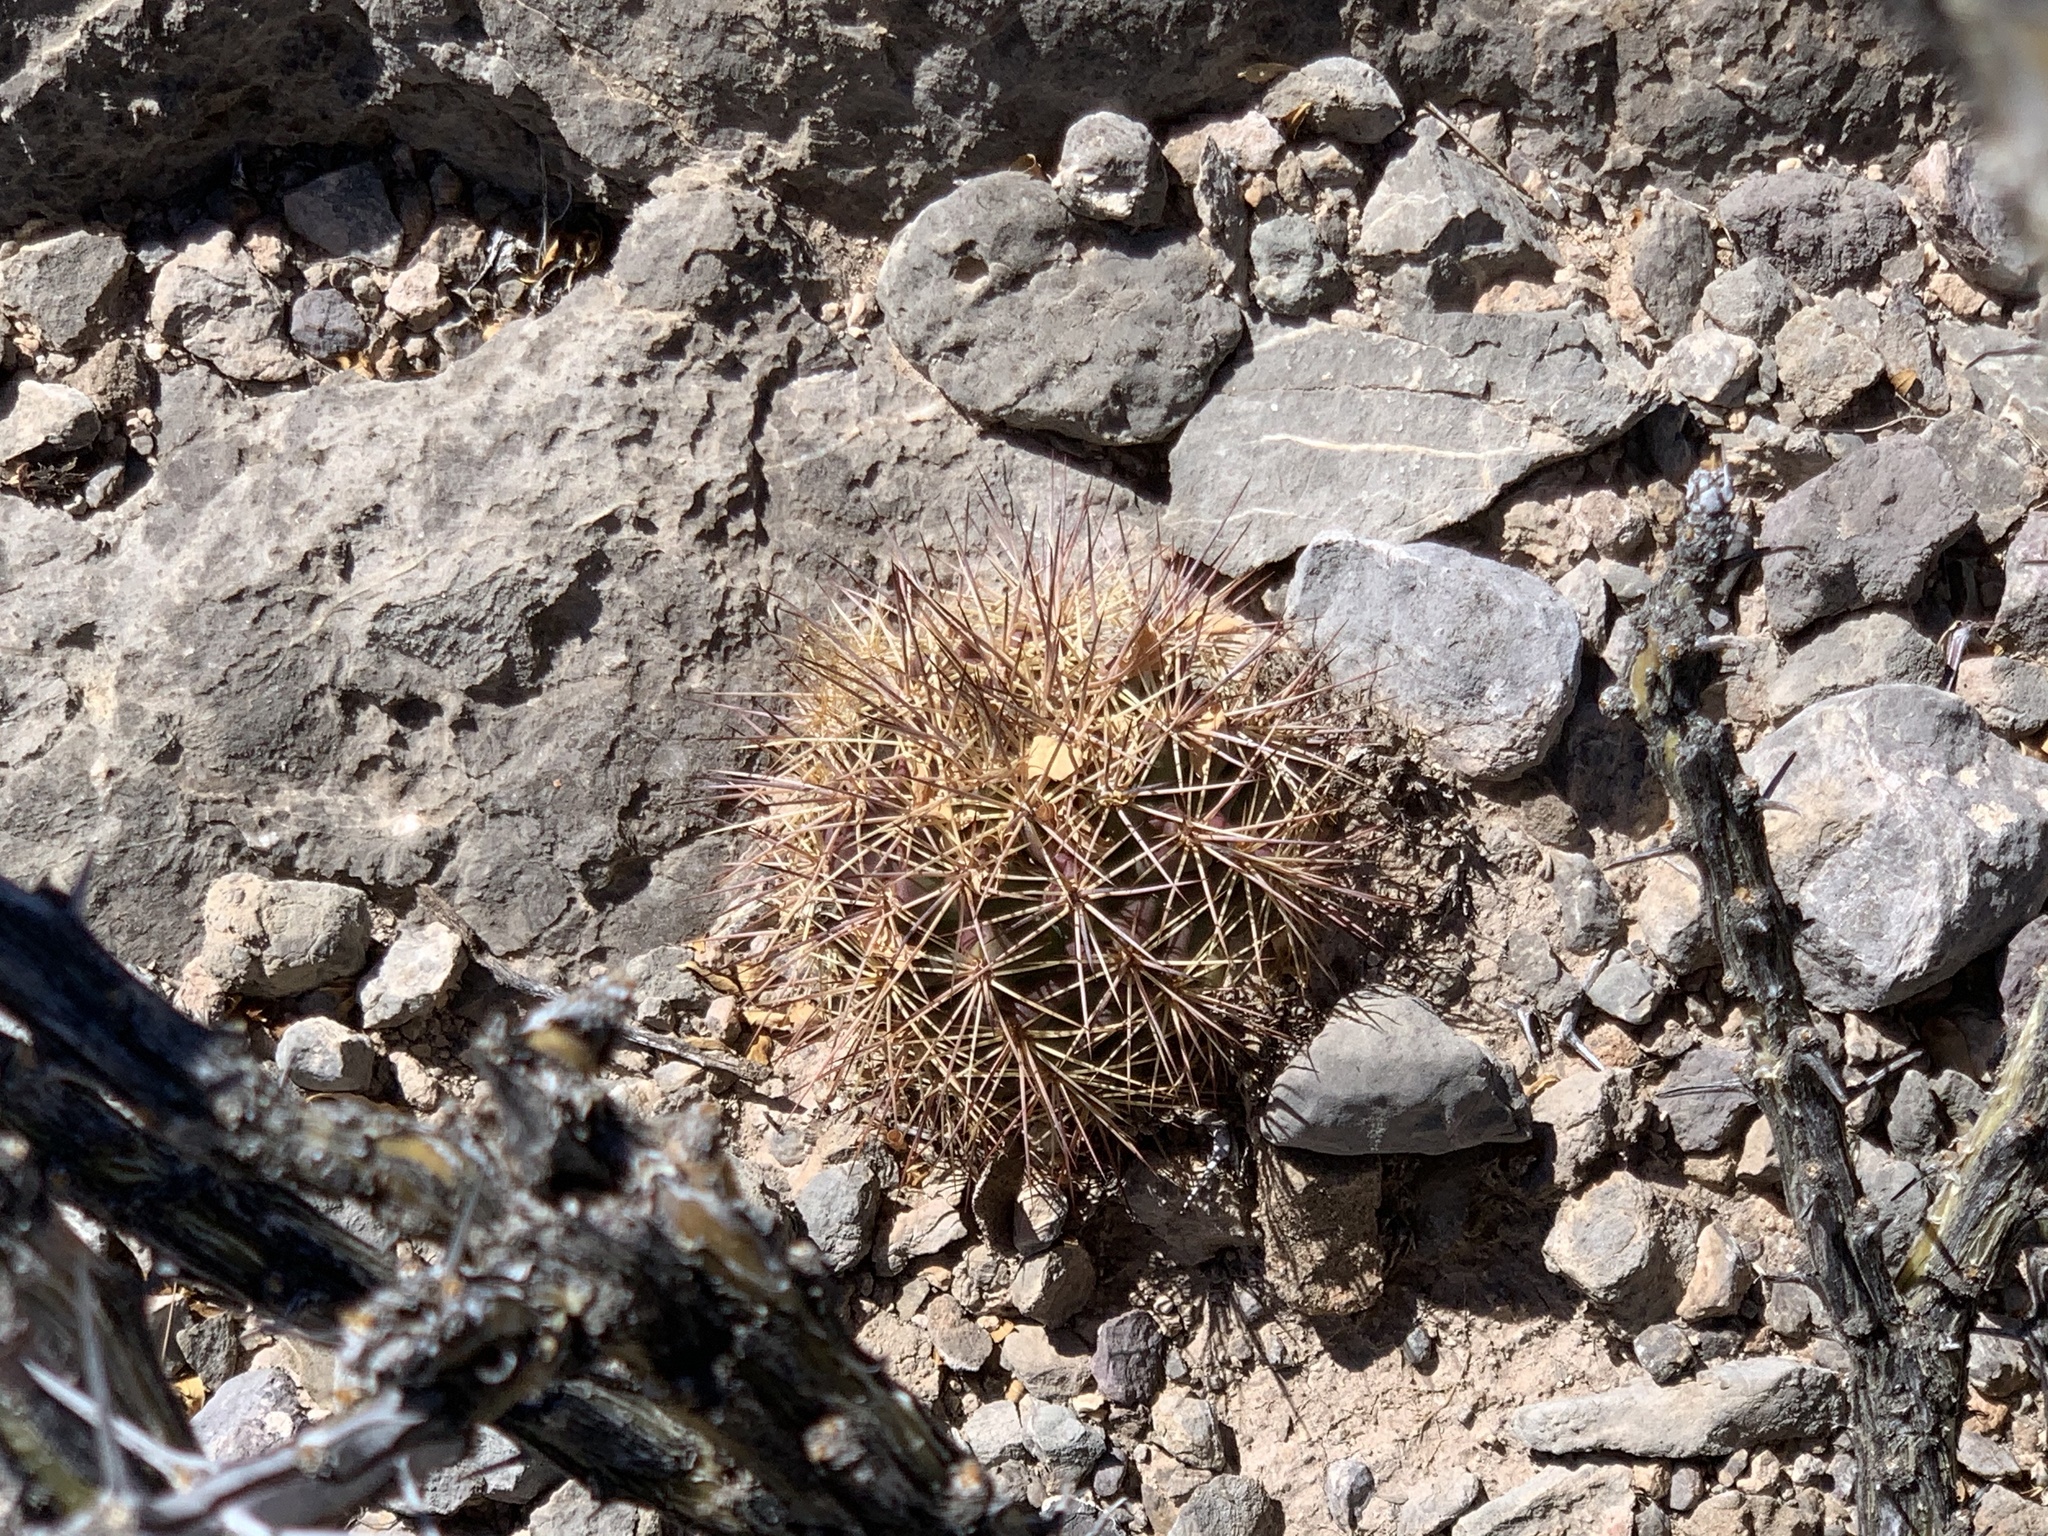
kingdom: Plantae
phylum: Tracheophyta
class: Magnoliopsida
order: Caryophyllales
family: Cactaceae
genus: Echinocereus
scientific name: Echinocereus coccineus
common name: Scarlet hedgehog cactus
